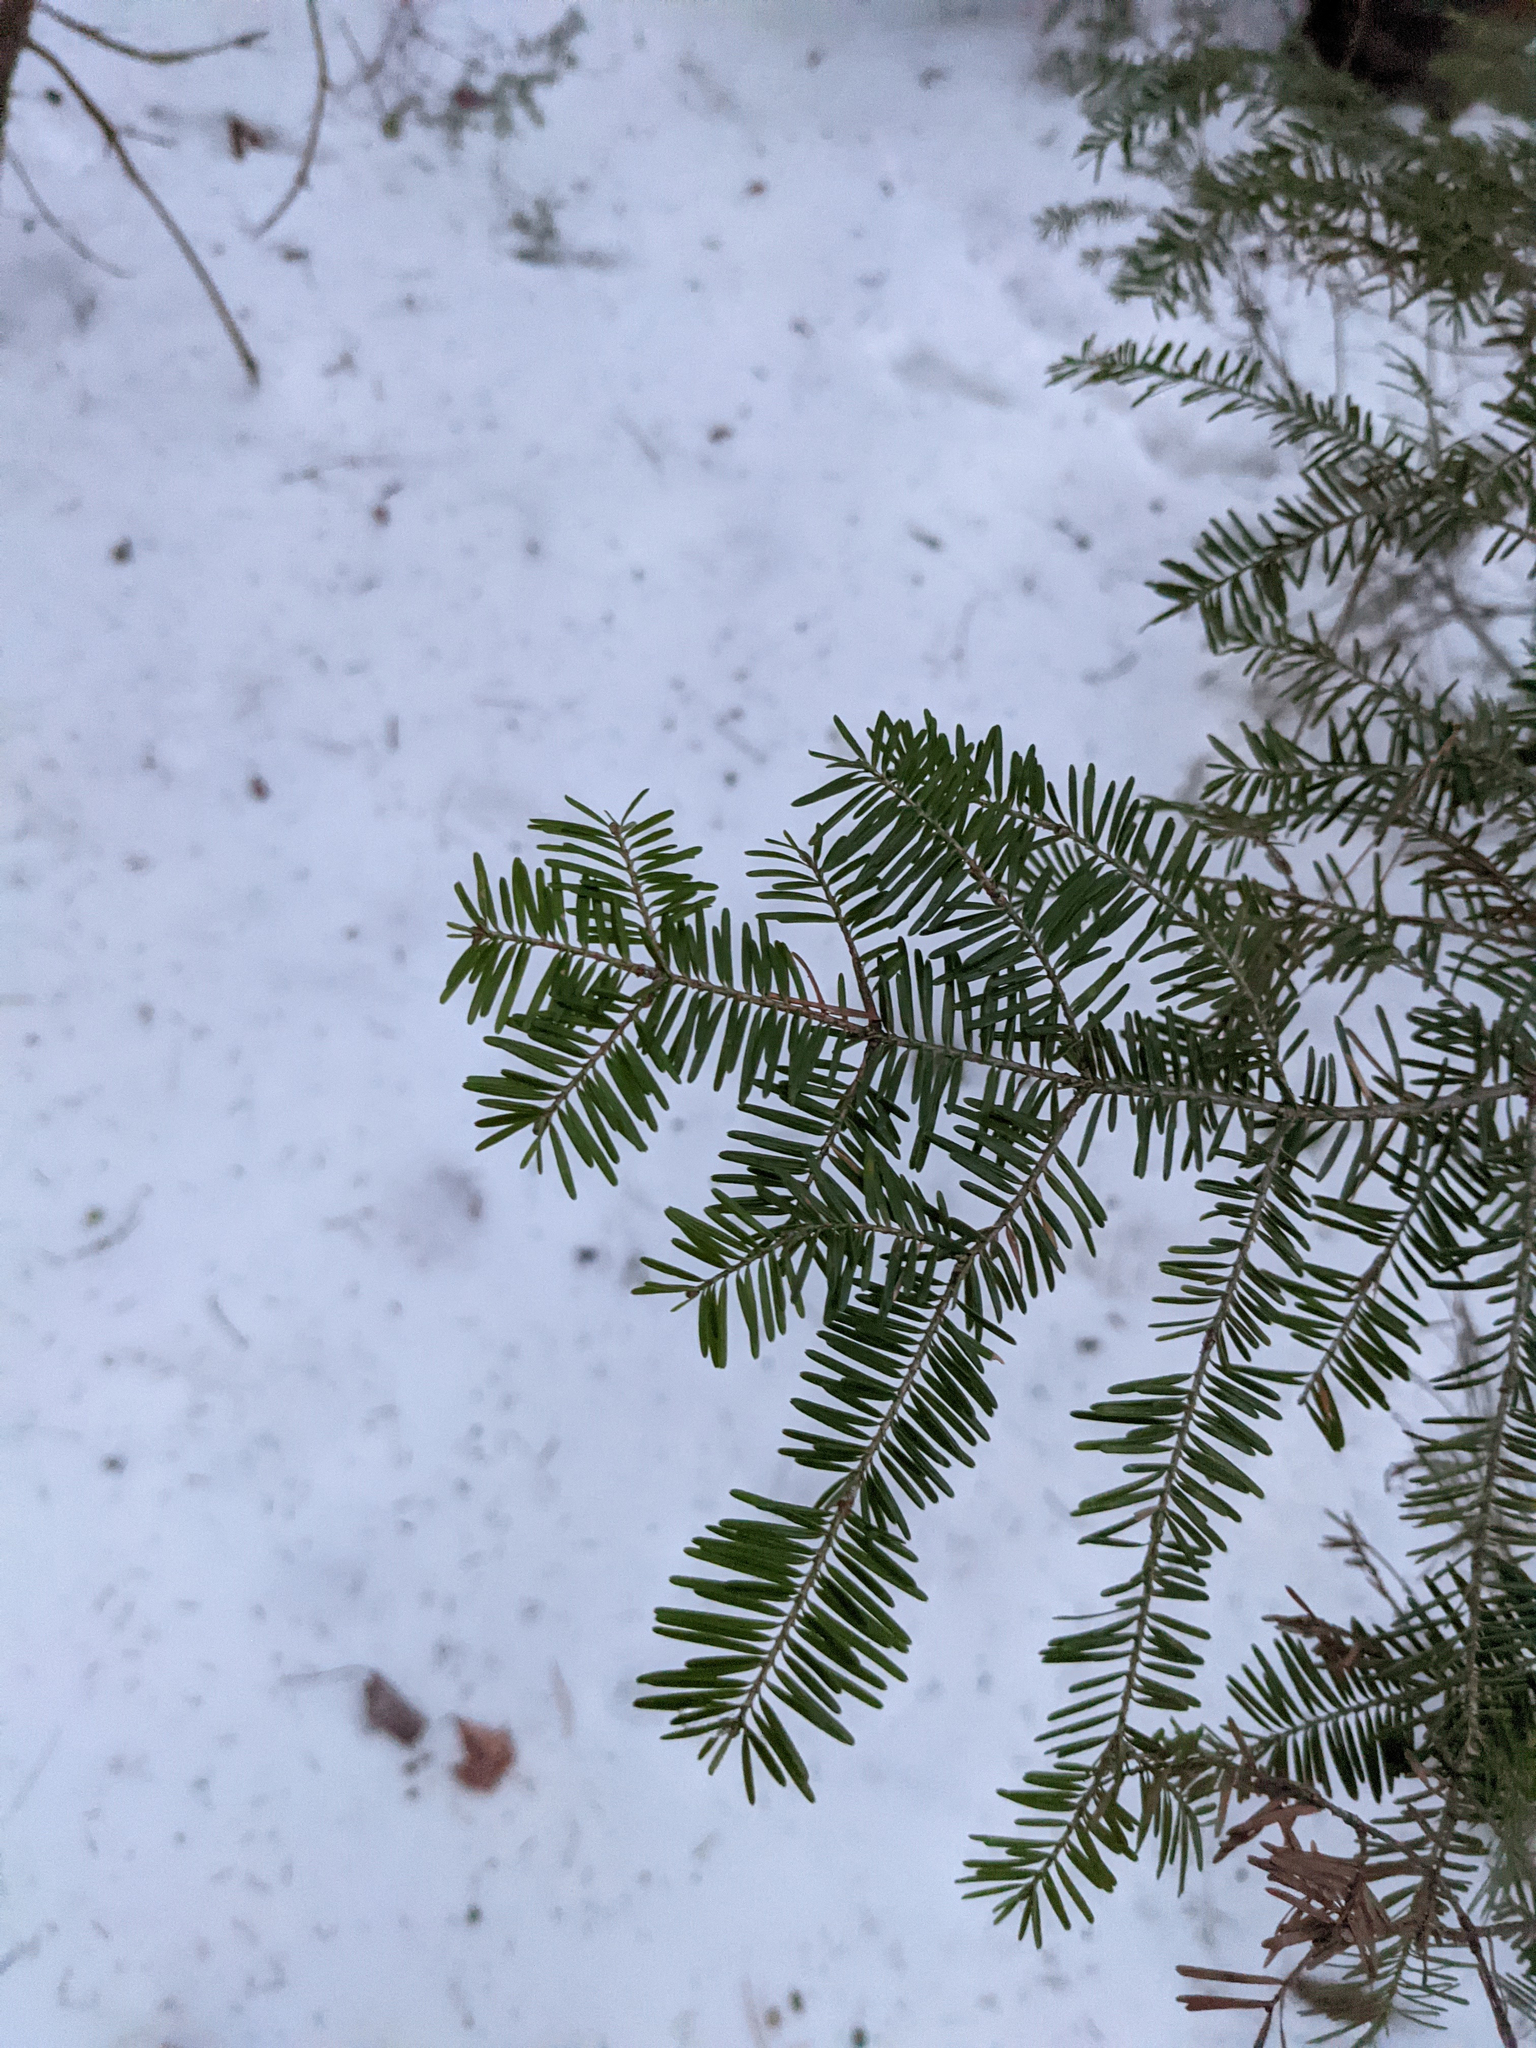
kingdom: Plantae
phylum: Tracheophyta
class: Pinopsida
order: Pinales
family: Pinaceae
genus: Abies
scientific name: Abies balsamea
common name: Balsam fir
